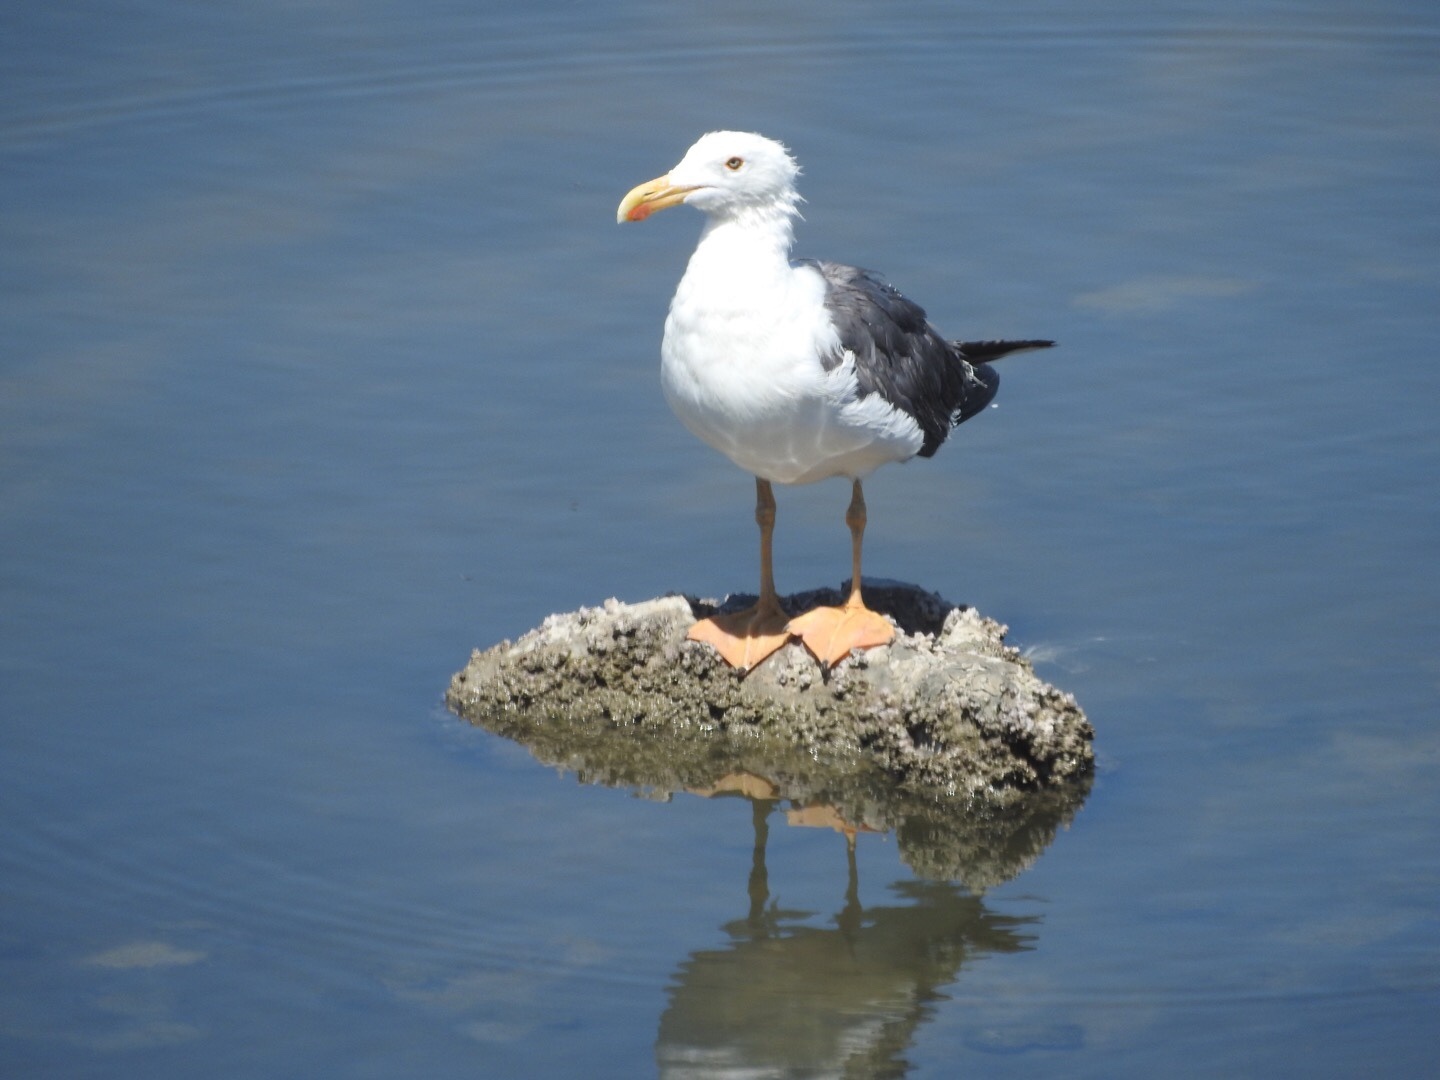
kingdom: Animalia
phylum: Chordata
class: Aves
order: Charadriiformes
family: Laridae
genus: Larus
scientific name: Larus livens
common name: Yellow-footed gull
